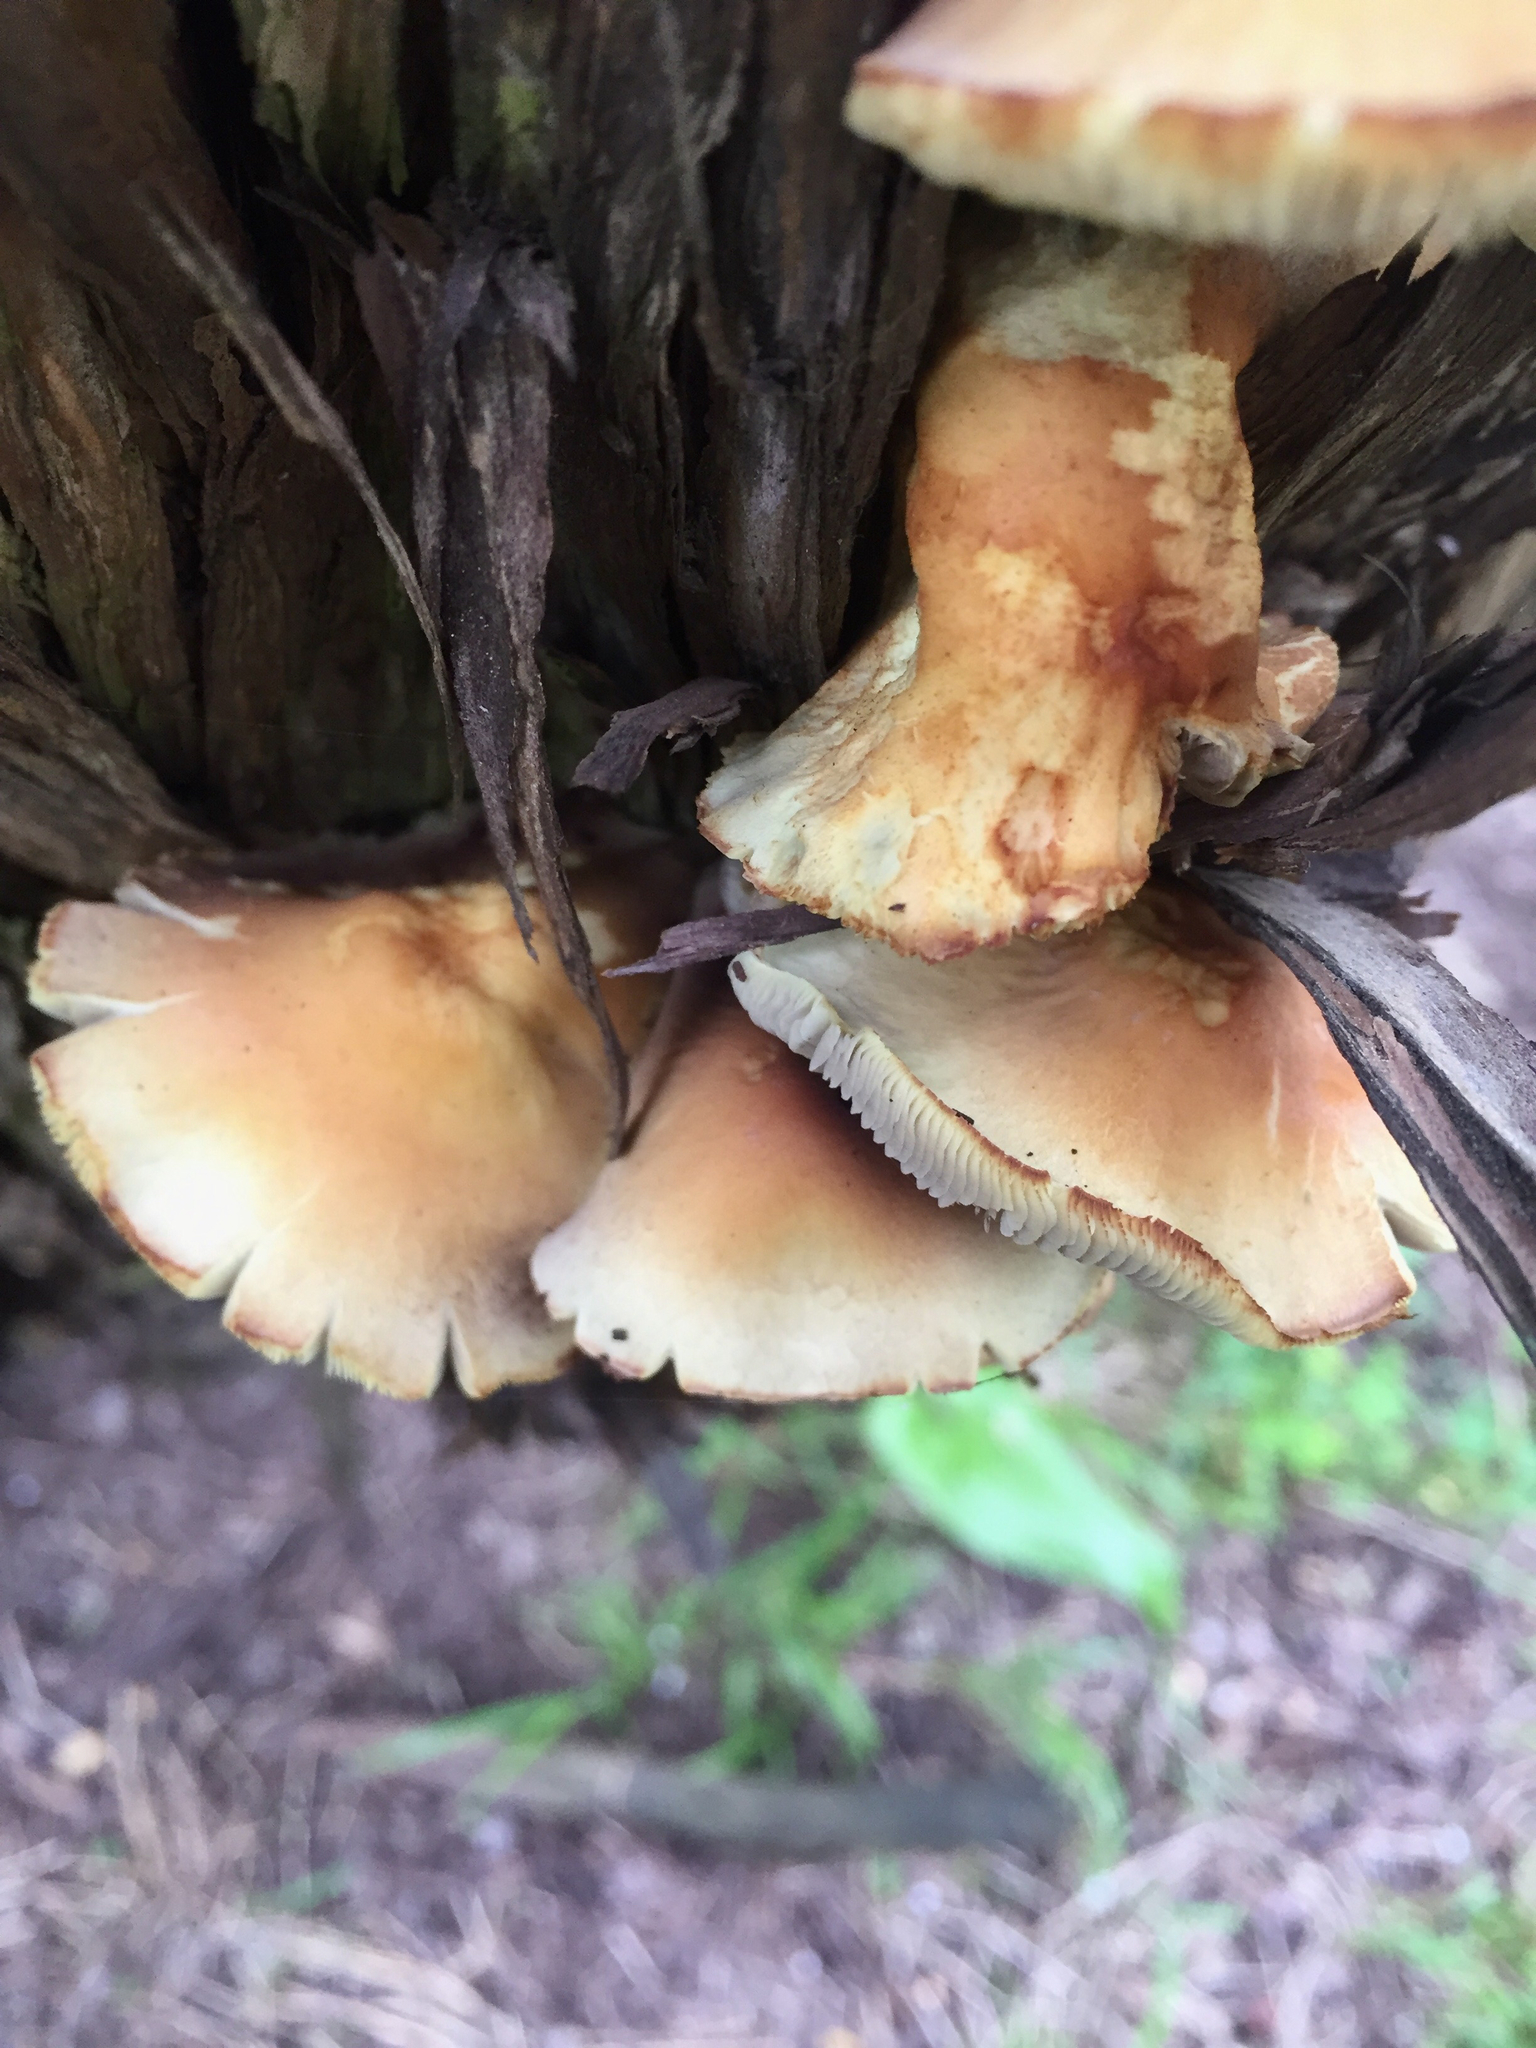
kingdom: Fungi
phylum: Basidiomycota
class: Agaricomycetes
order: Agaricales
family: Strophariaceae
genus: Hypholoma
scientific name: Hypholoma fasciculare
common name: Sulphur tuft
